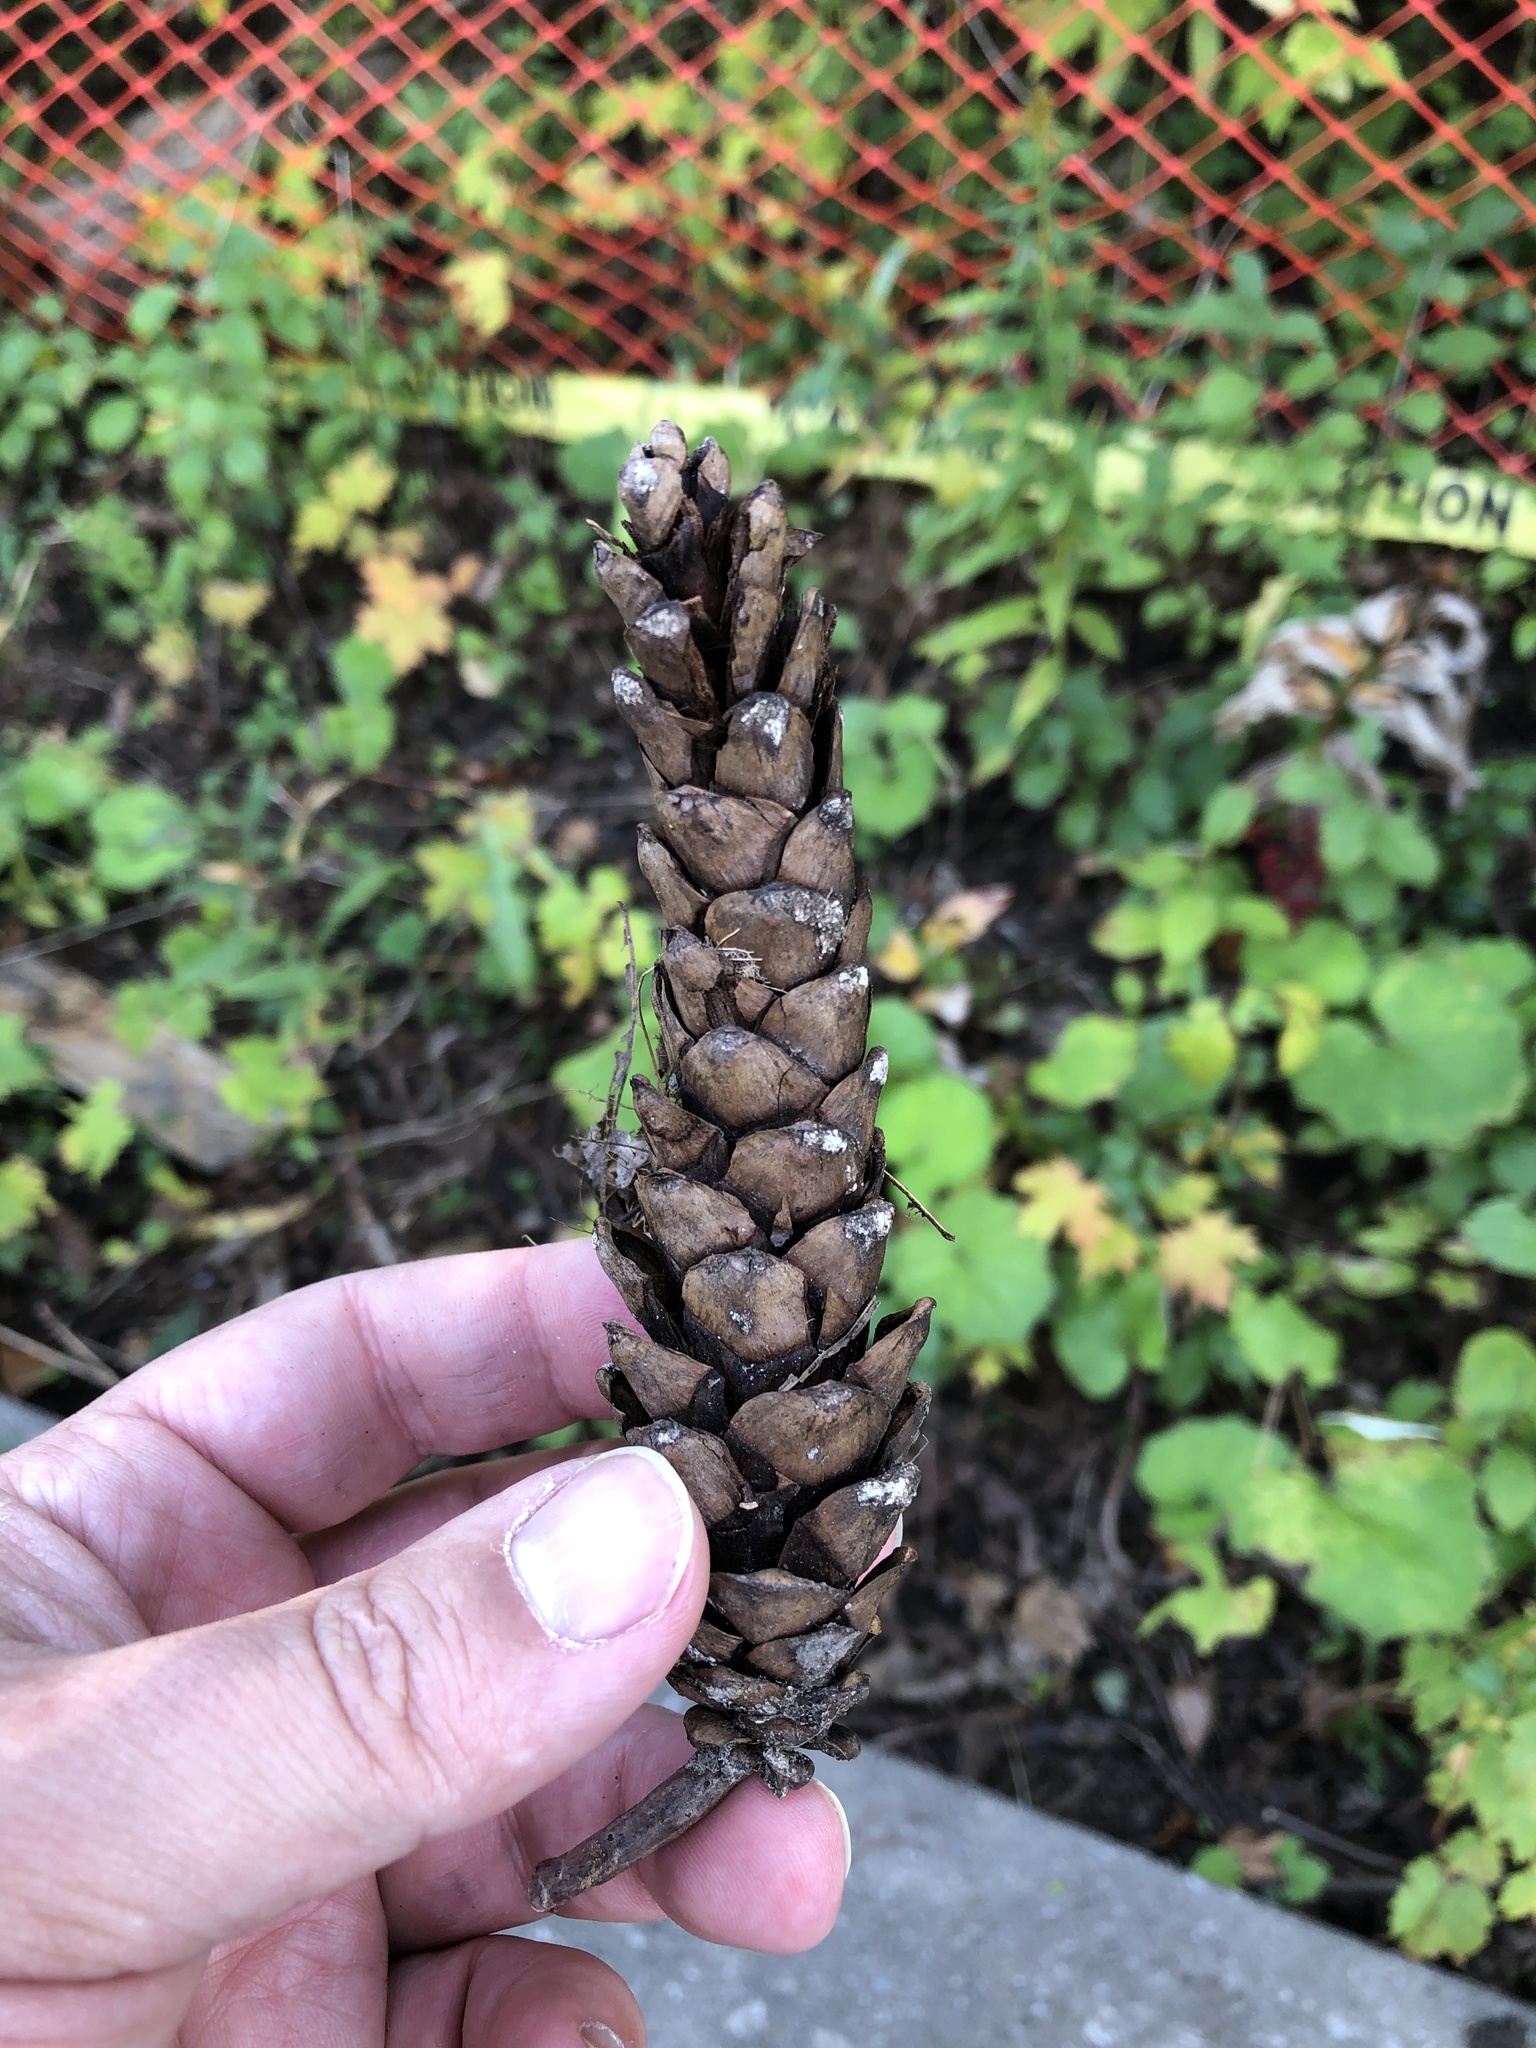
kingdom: Plantae
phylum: Tracheophyta
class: Pinopsida
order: Pinales
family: Pinaceae
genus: Pinus
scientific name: Pinus strobus
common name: Weymouth pine
